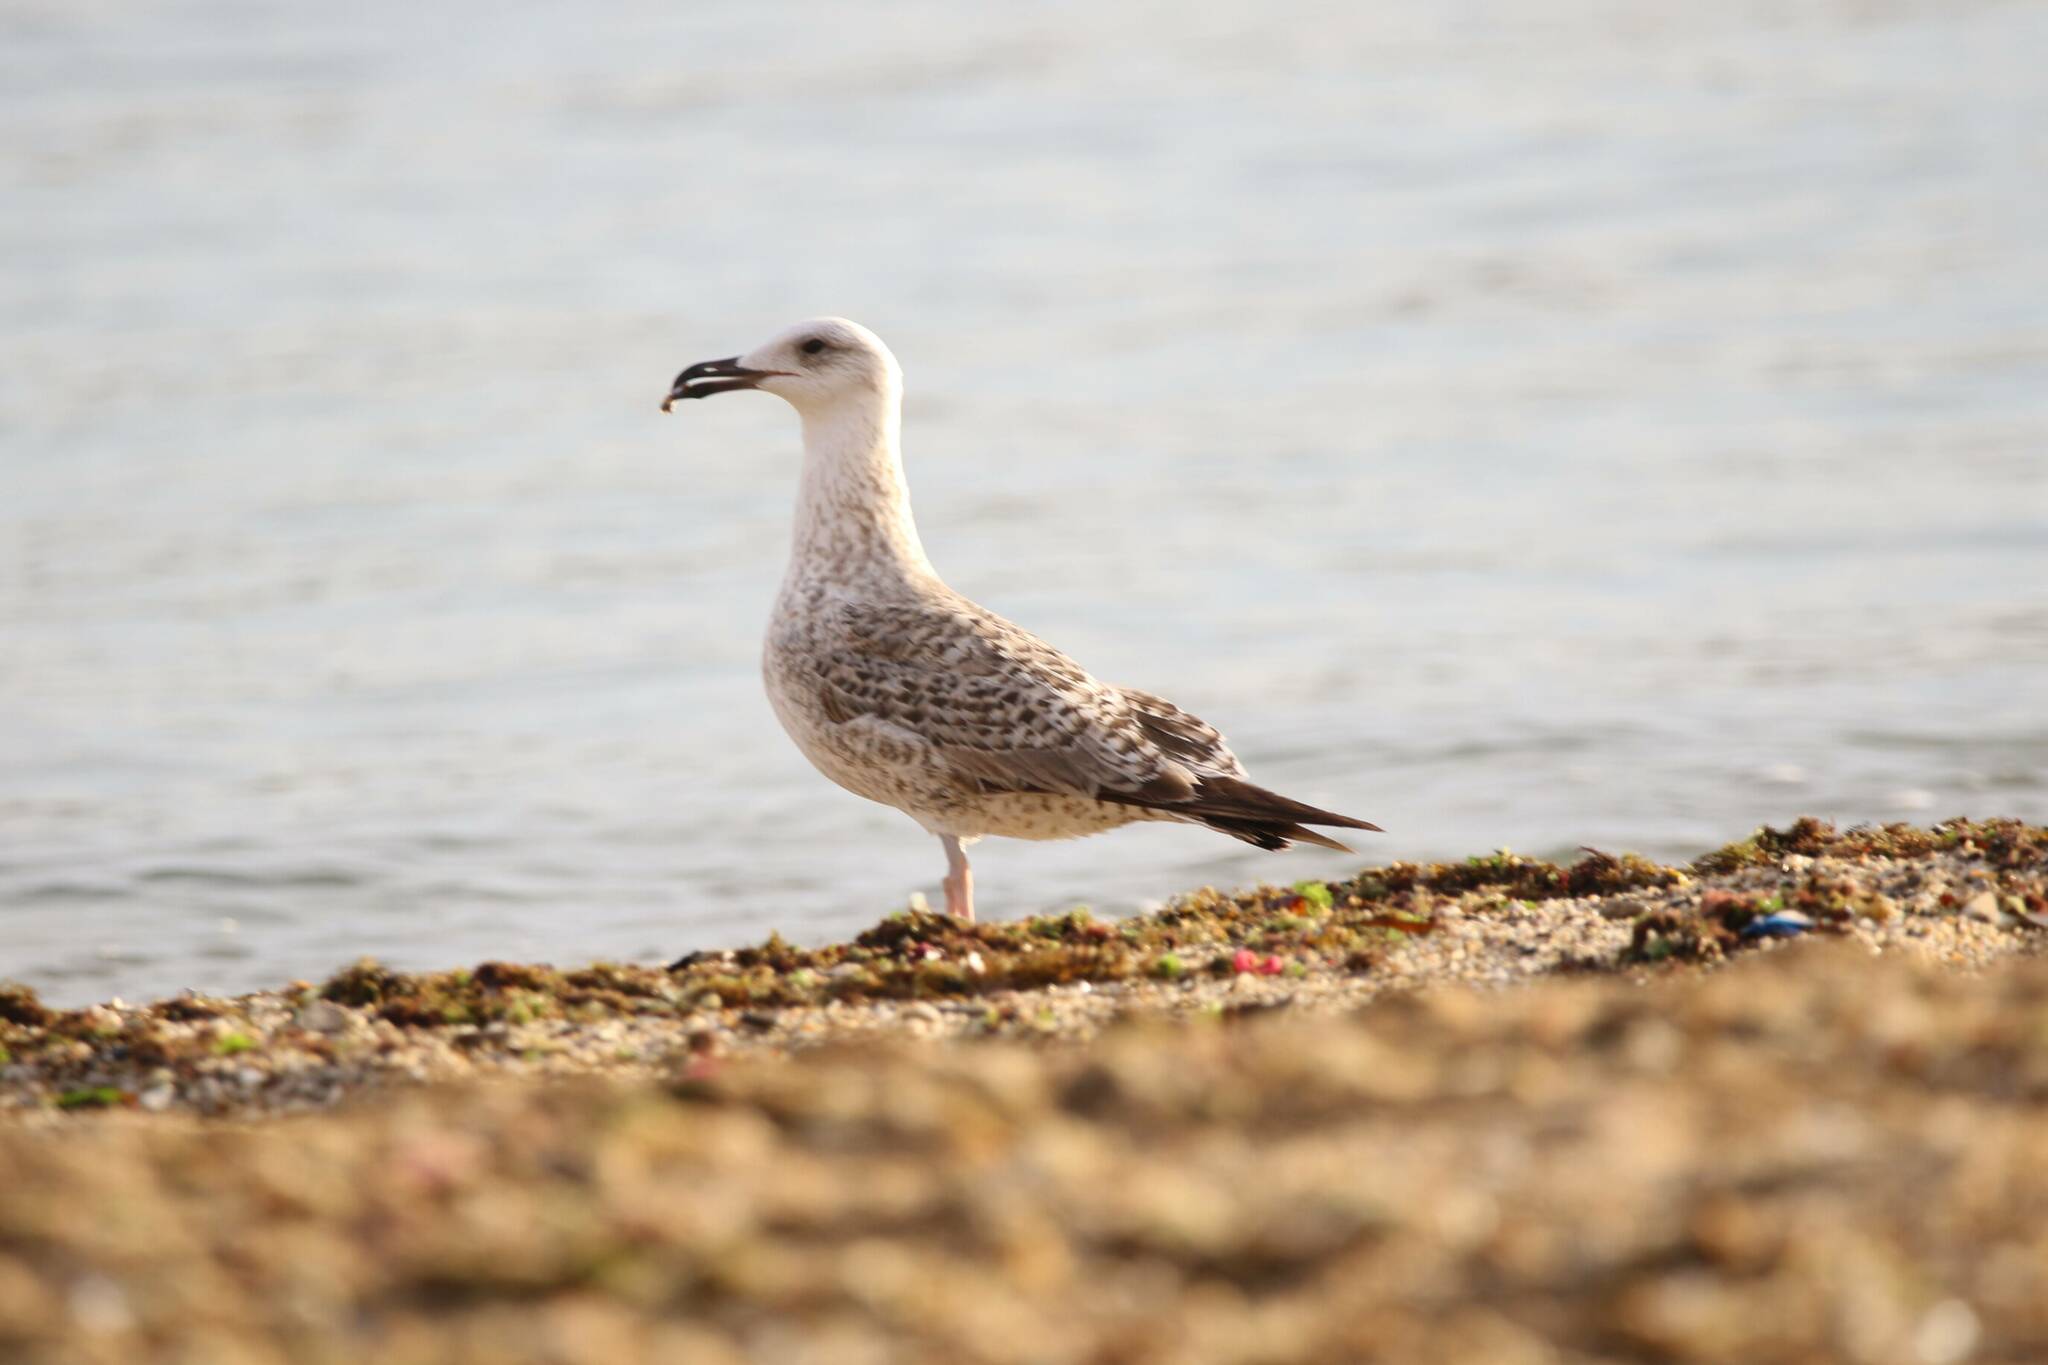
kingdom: Animalia
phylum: Chordata
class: Aves
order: Charadriiformes
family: Laridae
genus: Larus
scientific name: Larus michahellis
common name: Yellow-legged gull
